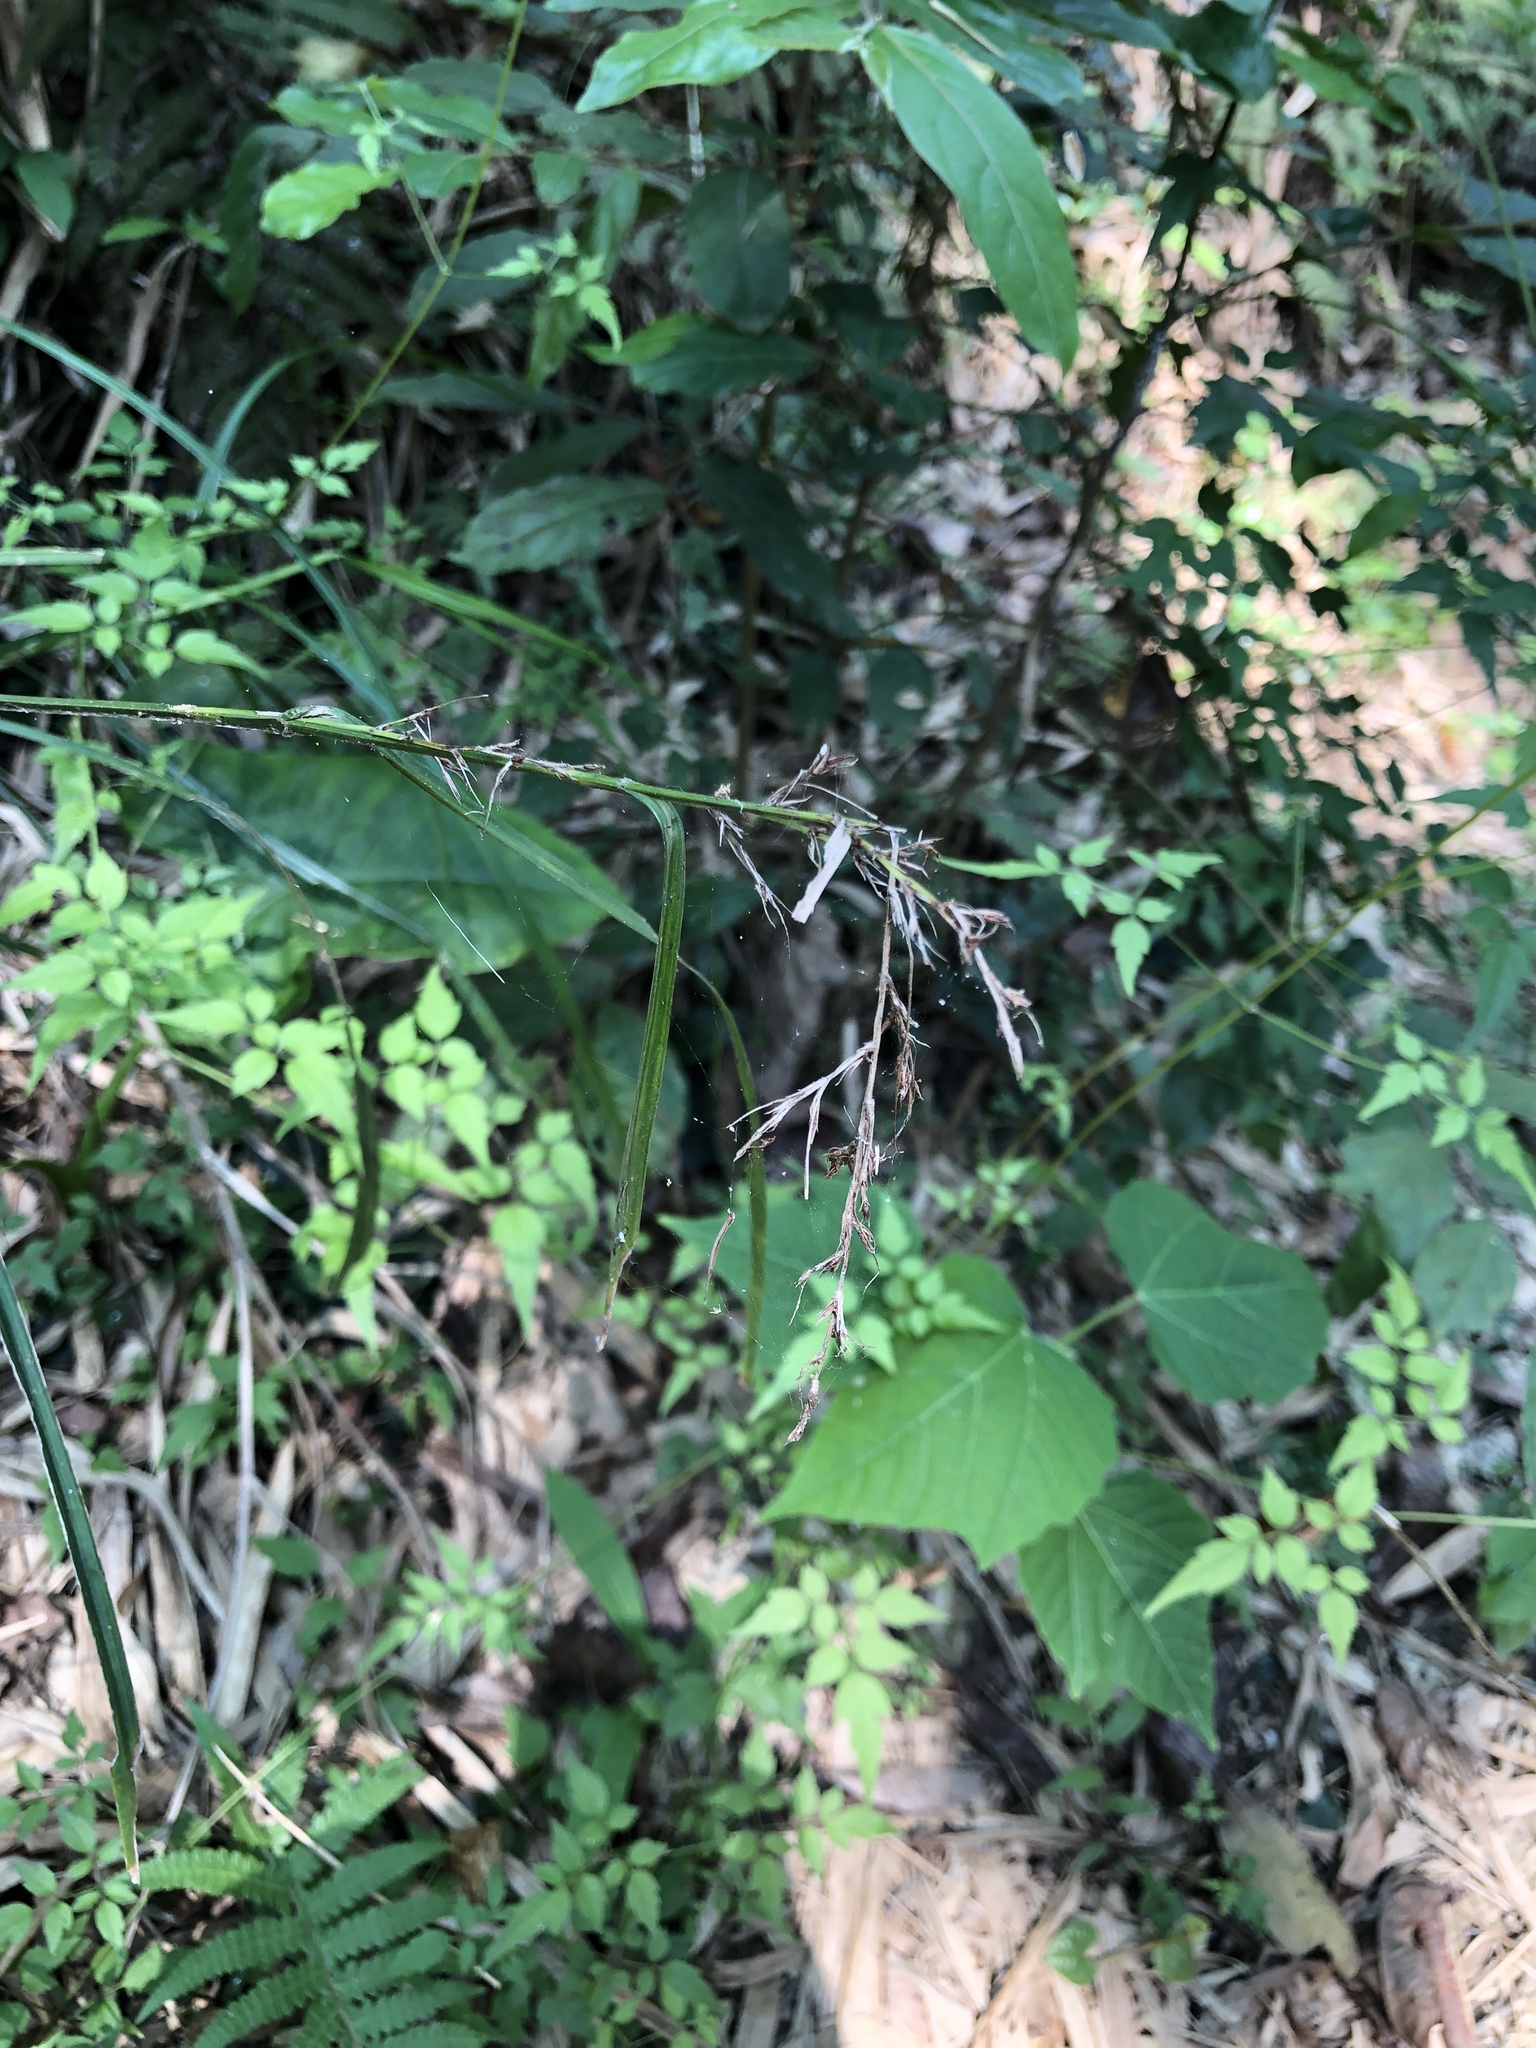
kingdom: Plantae
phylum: Tracheophyta
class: Liliopsida
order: Poales
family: Cyperaceae
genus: Scleria
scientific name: Scleria terrestris
